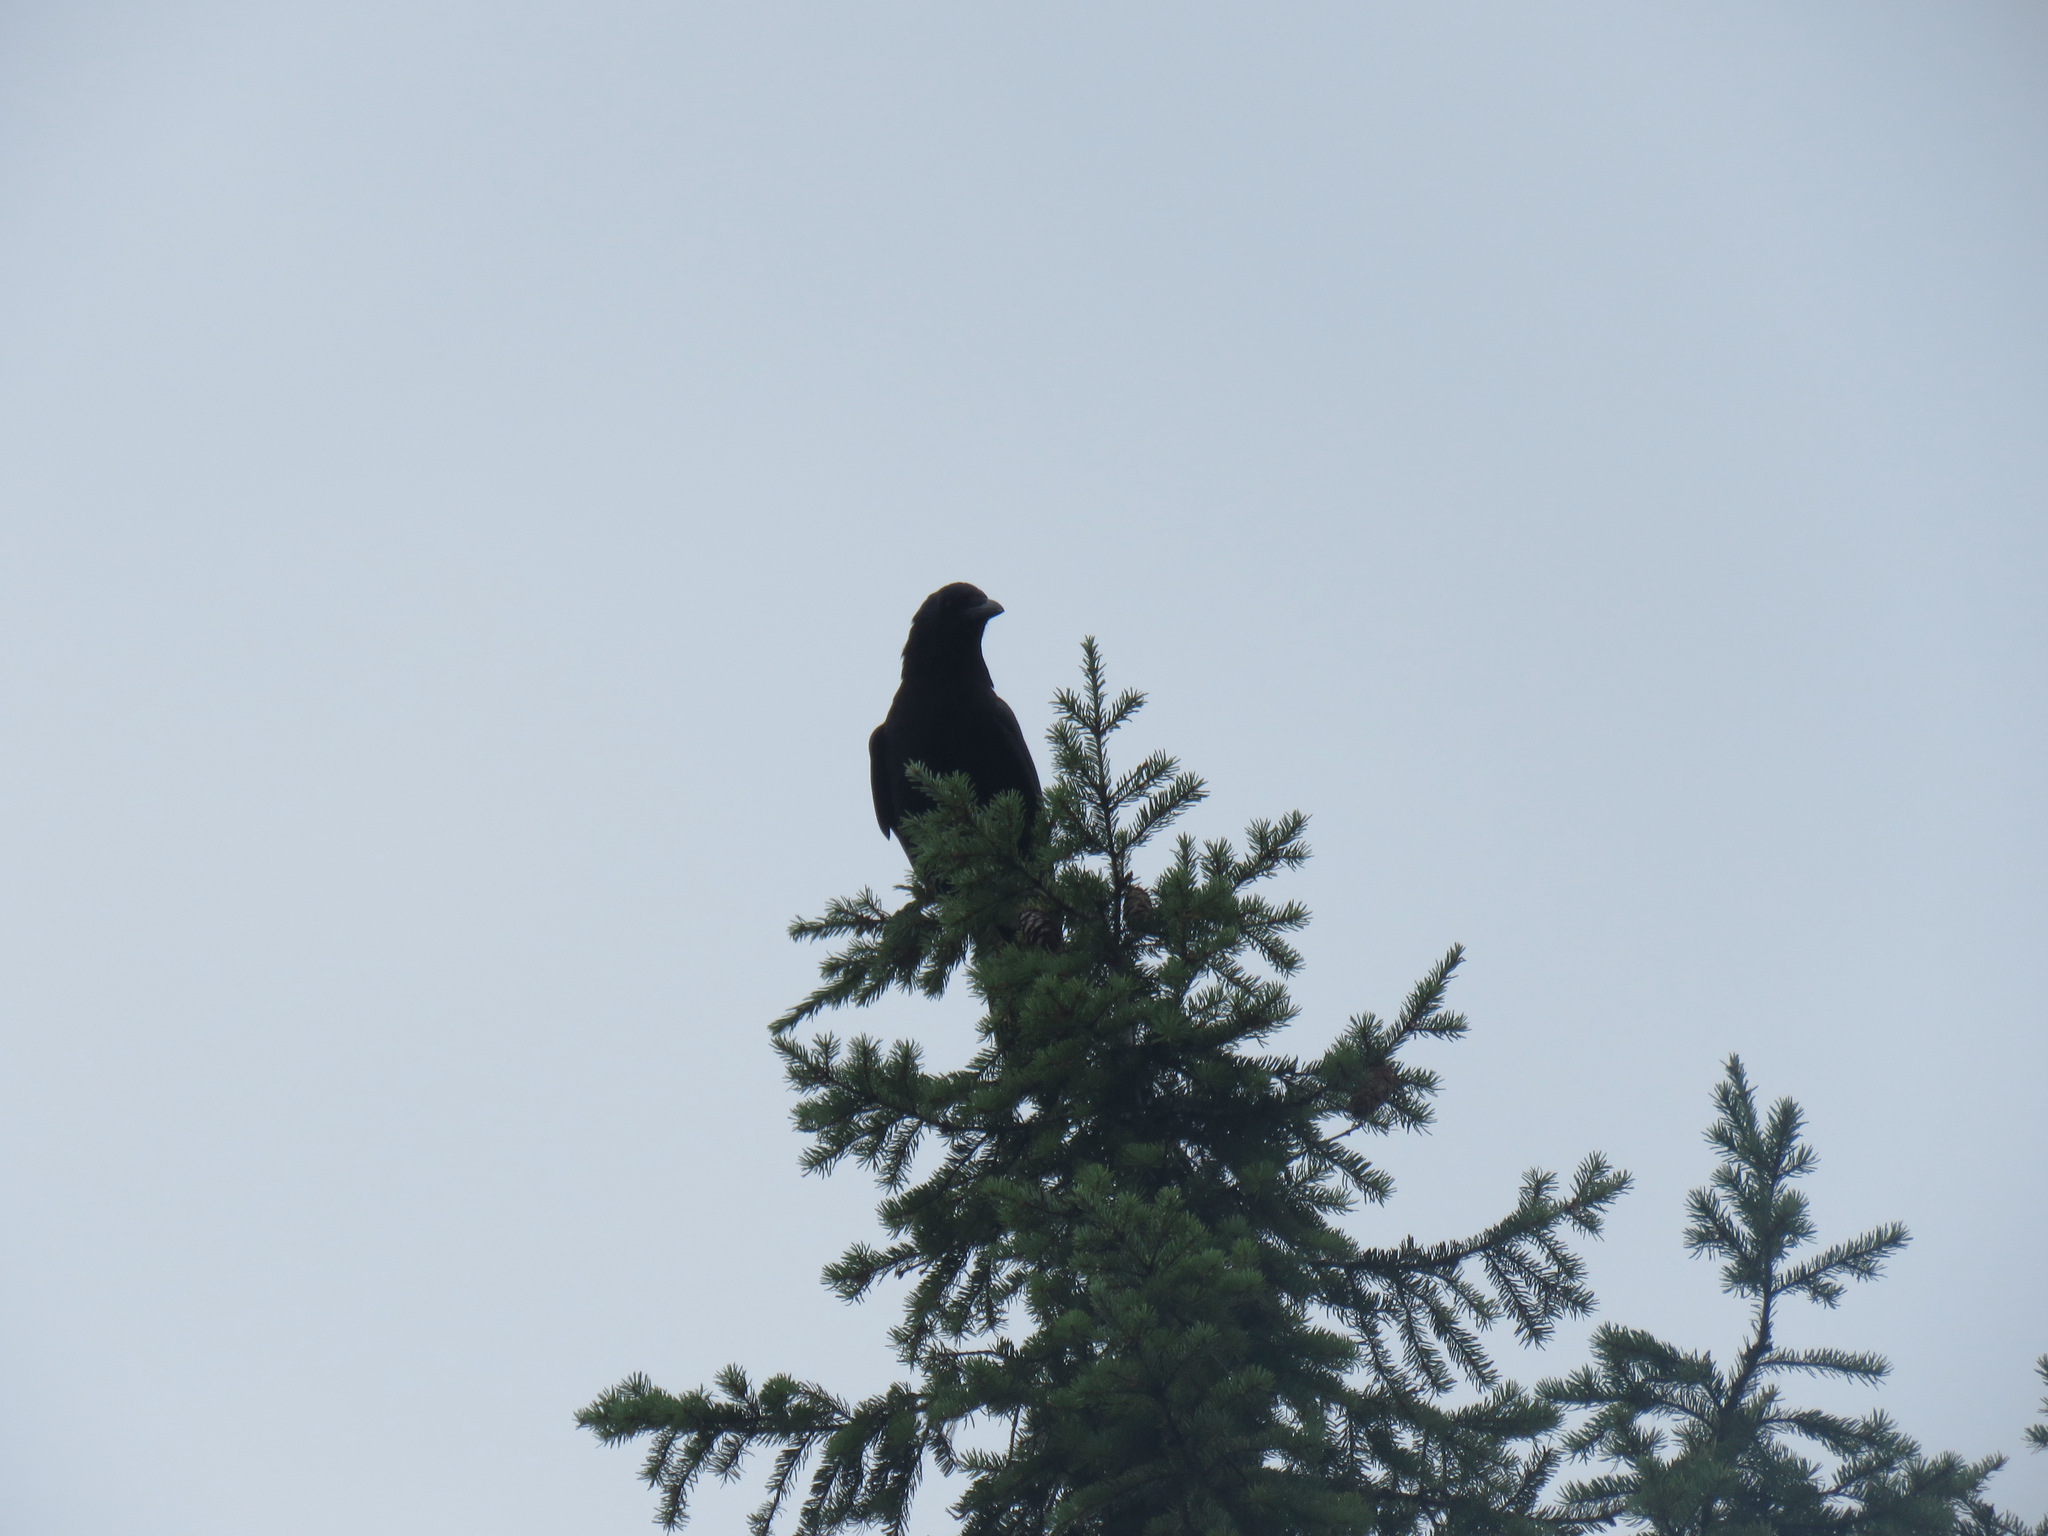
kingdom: Animalia
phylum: Chordata
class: Aves
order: Passeriformes
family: Corvidae
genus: Corvus
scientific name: Corvus brachyrhynchos
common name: American crow
